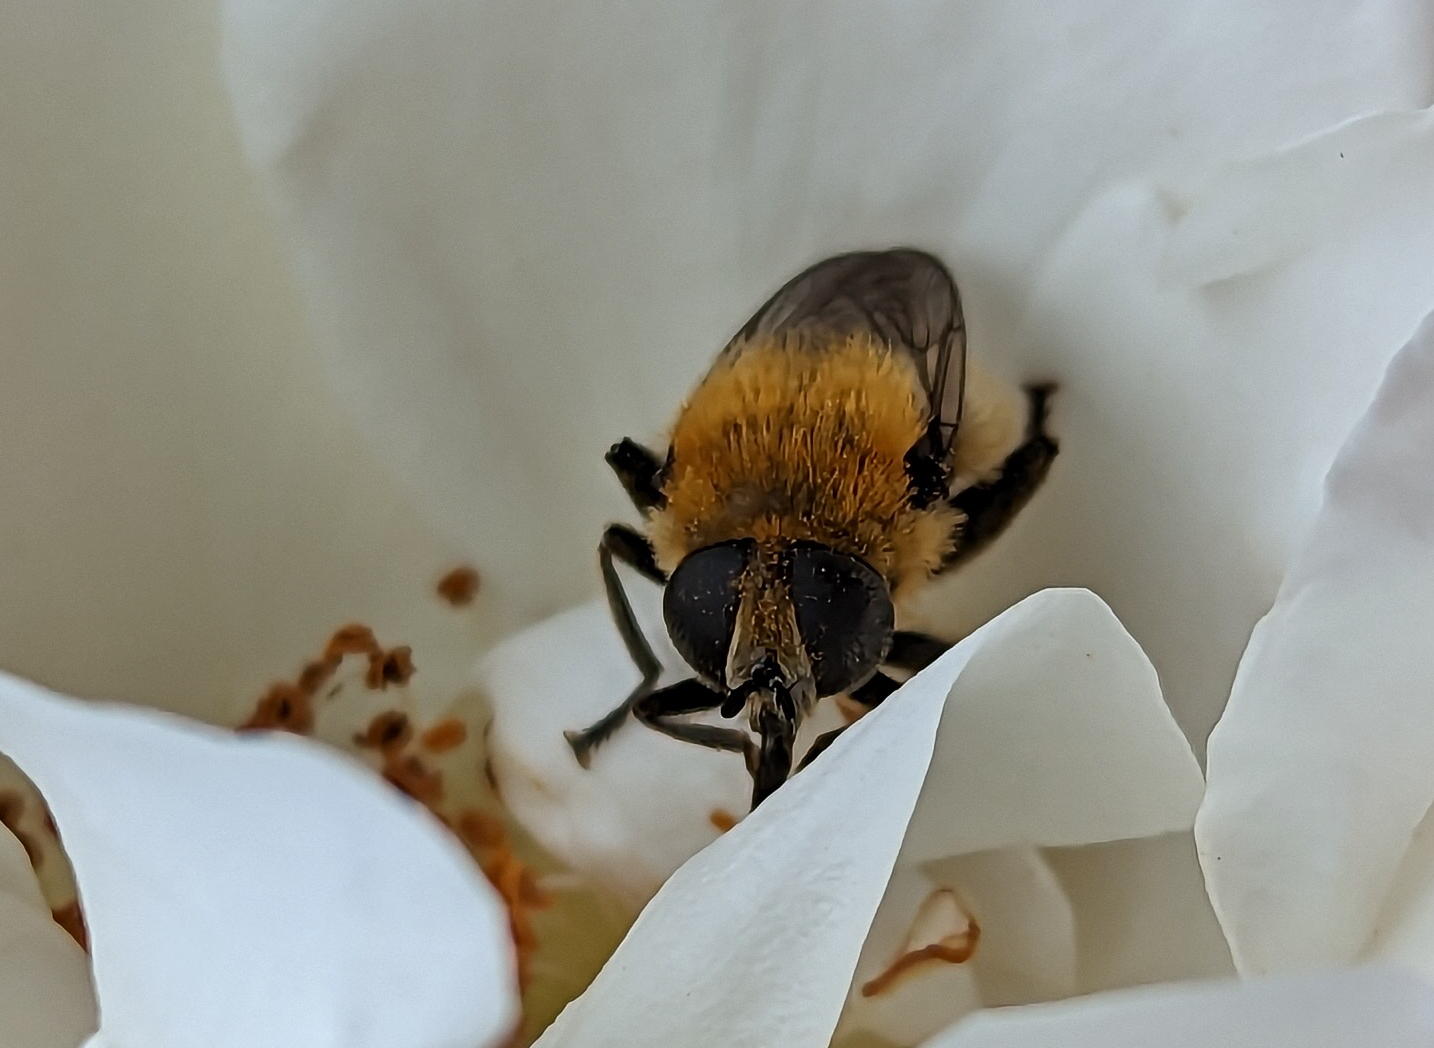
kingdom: Animalia
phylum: Arthropoda
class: Insecta
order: Diptera
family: Syrphidae
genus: Merodon
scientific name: Merodon equestris
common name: Greater bulb-fly
